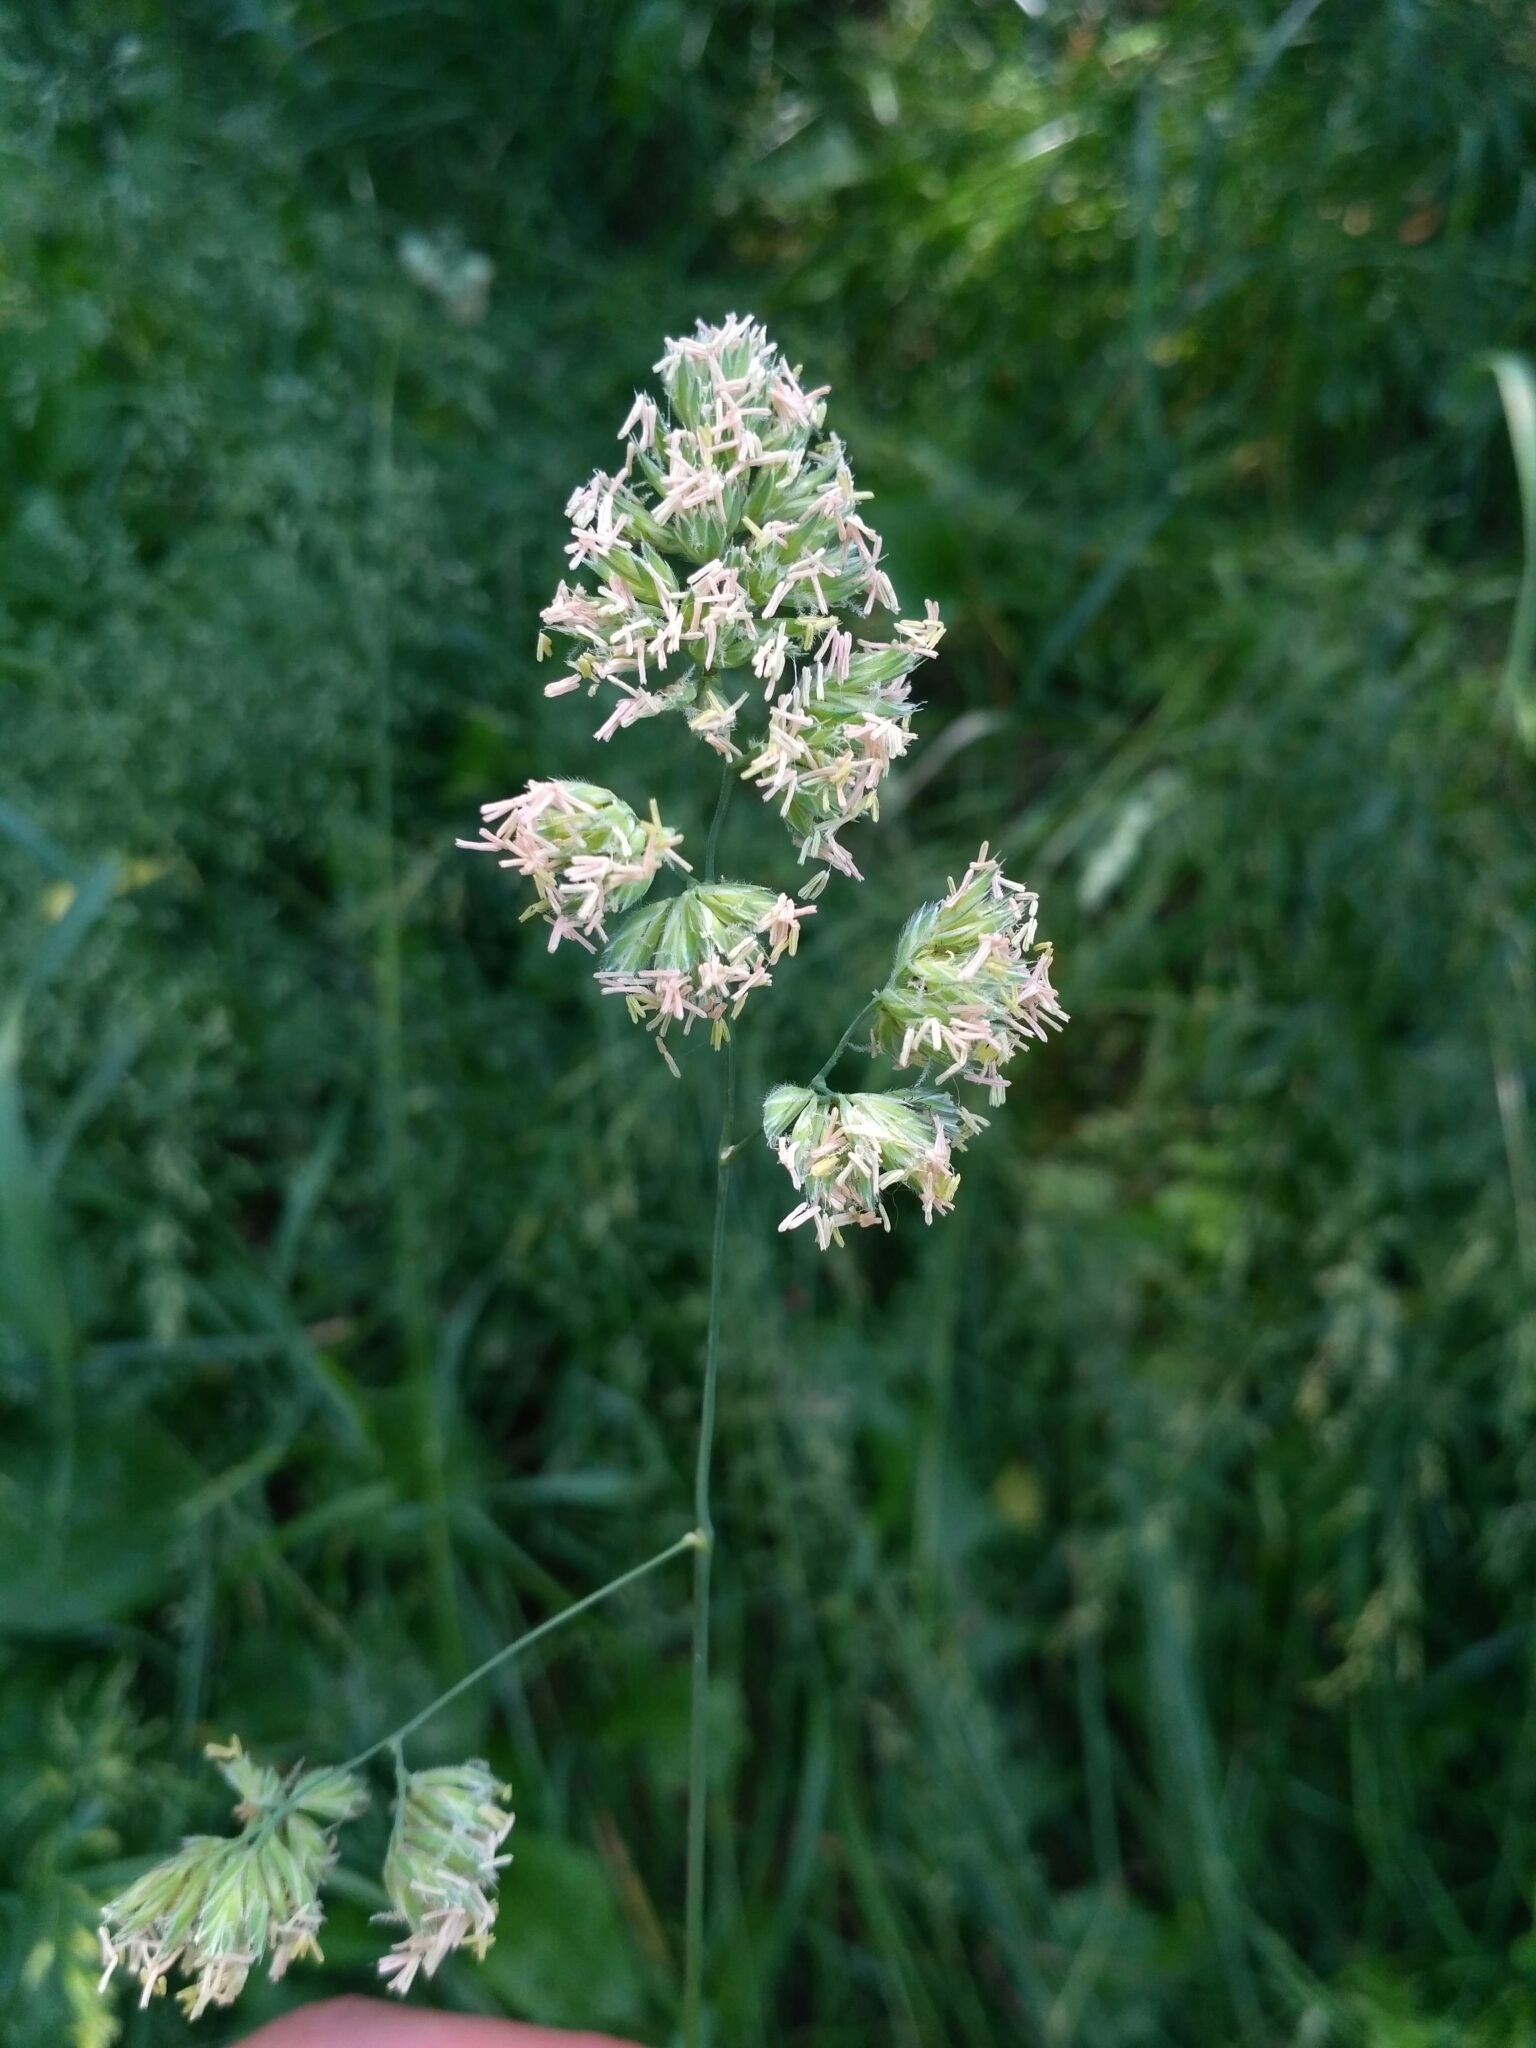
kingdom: Plantae
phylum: Tracheophyta
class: Liliopsida
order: Poales
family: Poaceae
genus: Dactylis
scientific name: Dactylis glomerata
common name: Orchardgrass
